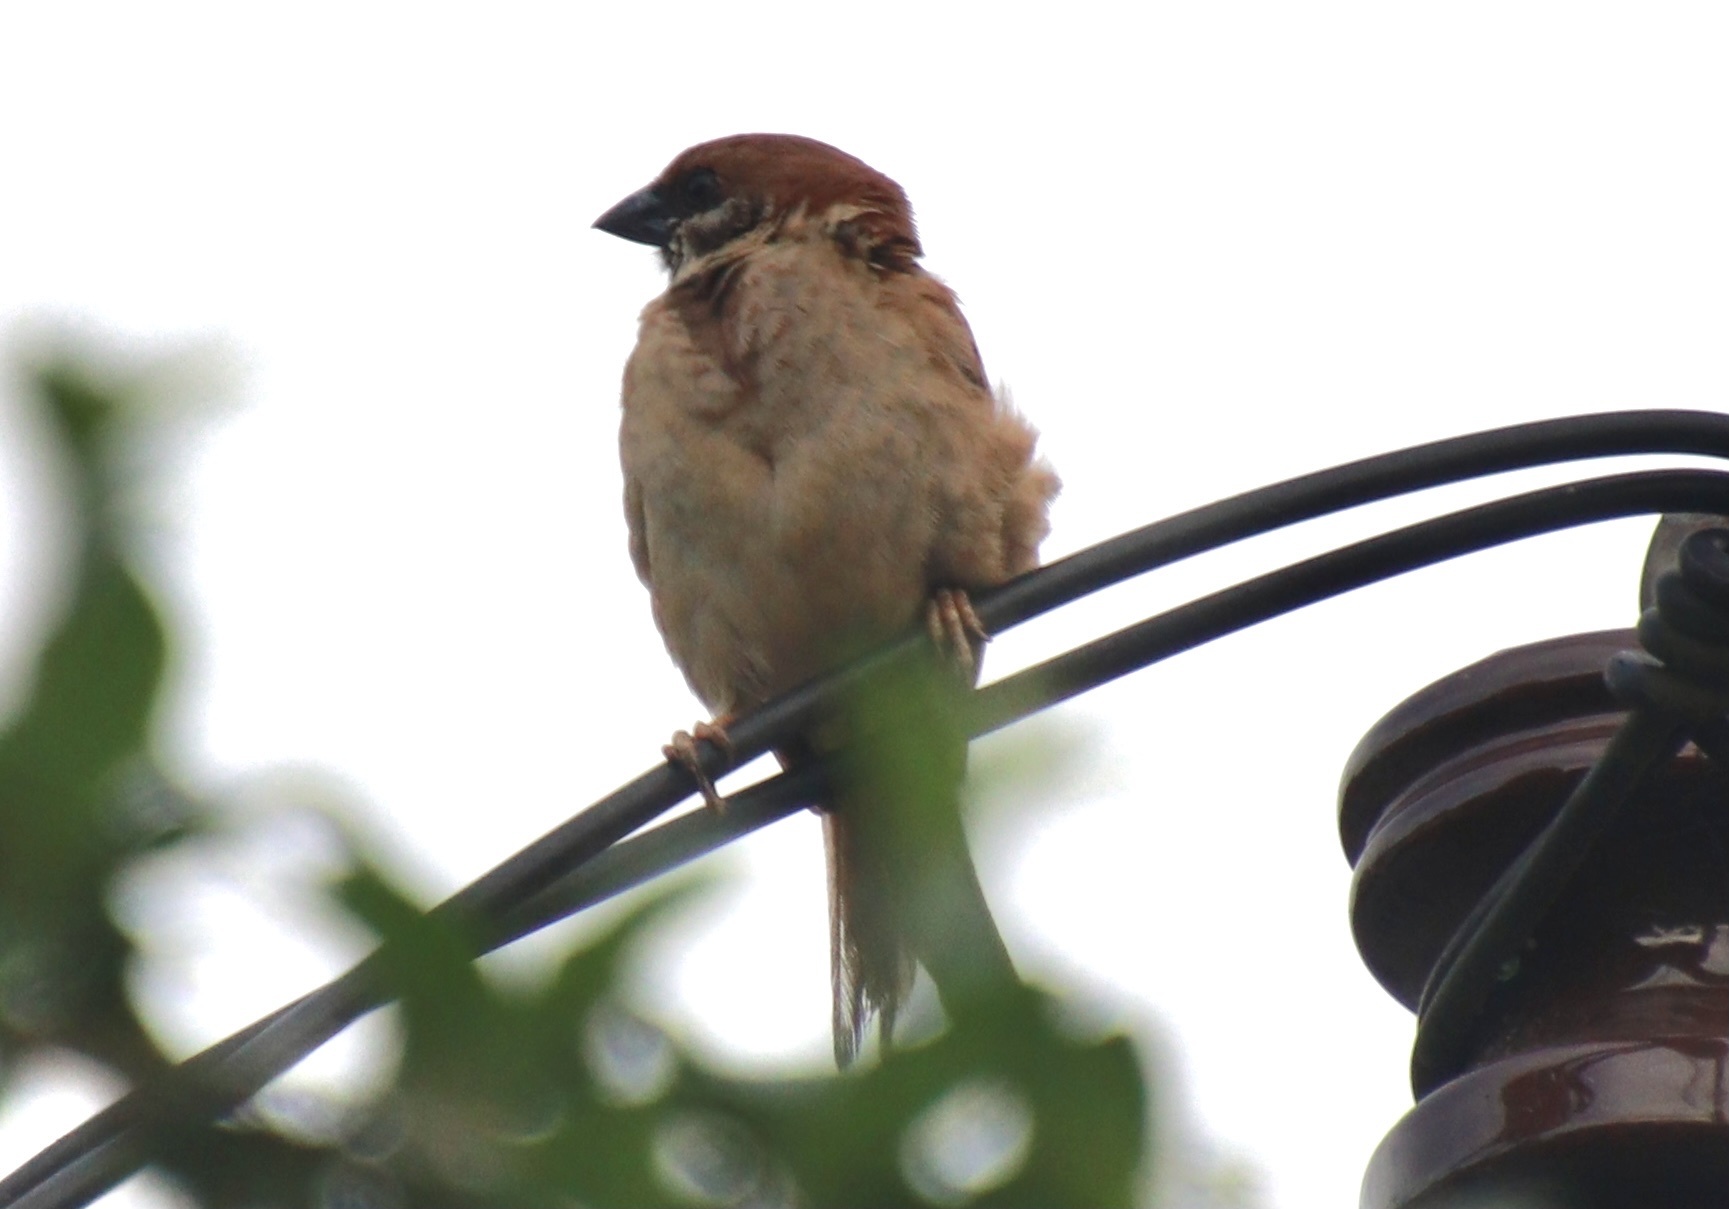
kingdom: Animalia
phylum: Chordata
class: Aves
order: Passeriformes
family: Passeridae
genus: Passer
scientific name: Passer montanus
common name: Eurasian tree sparrow
